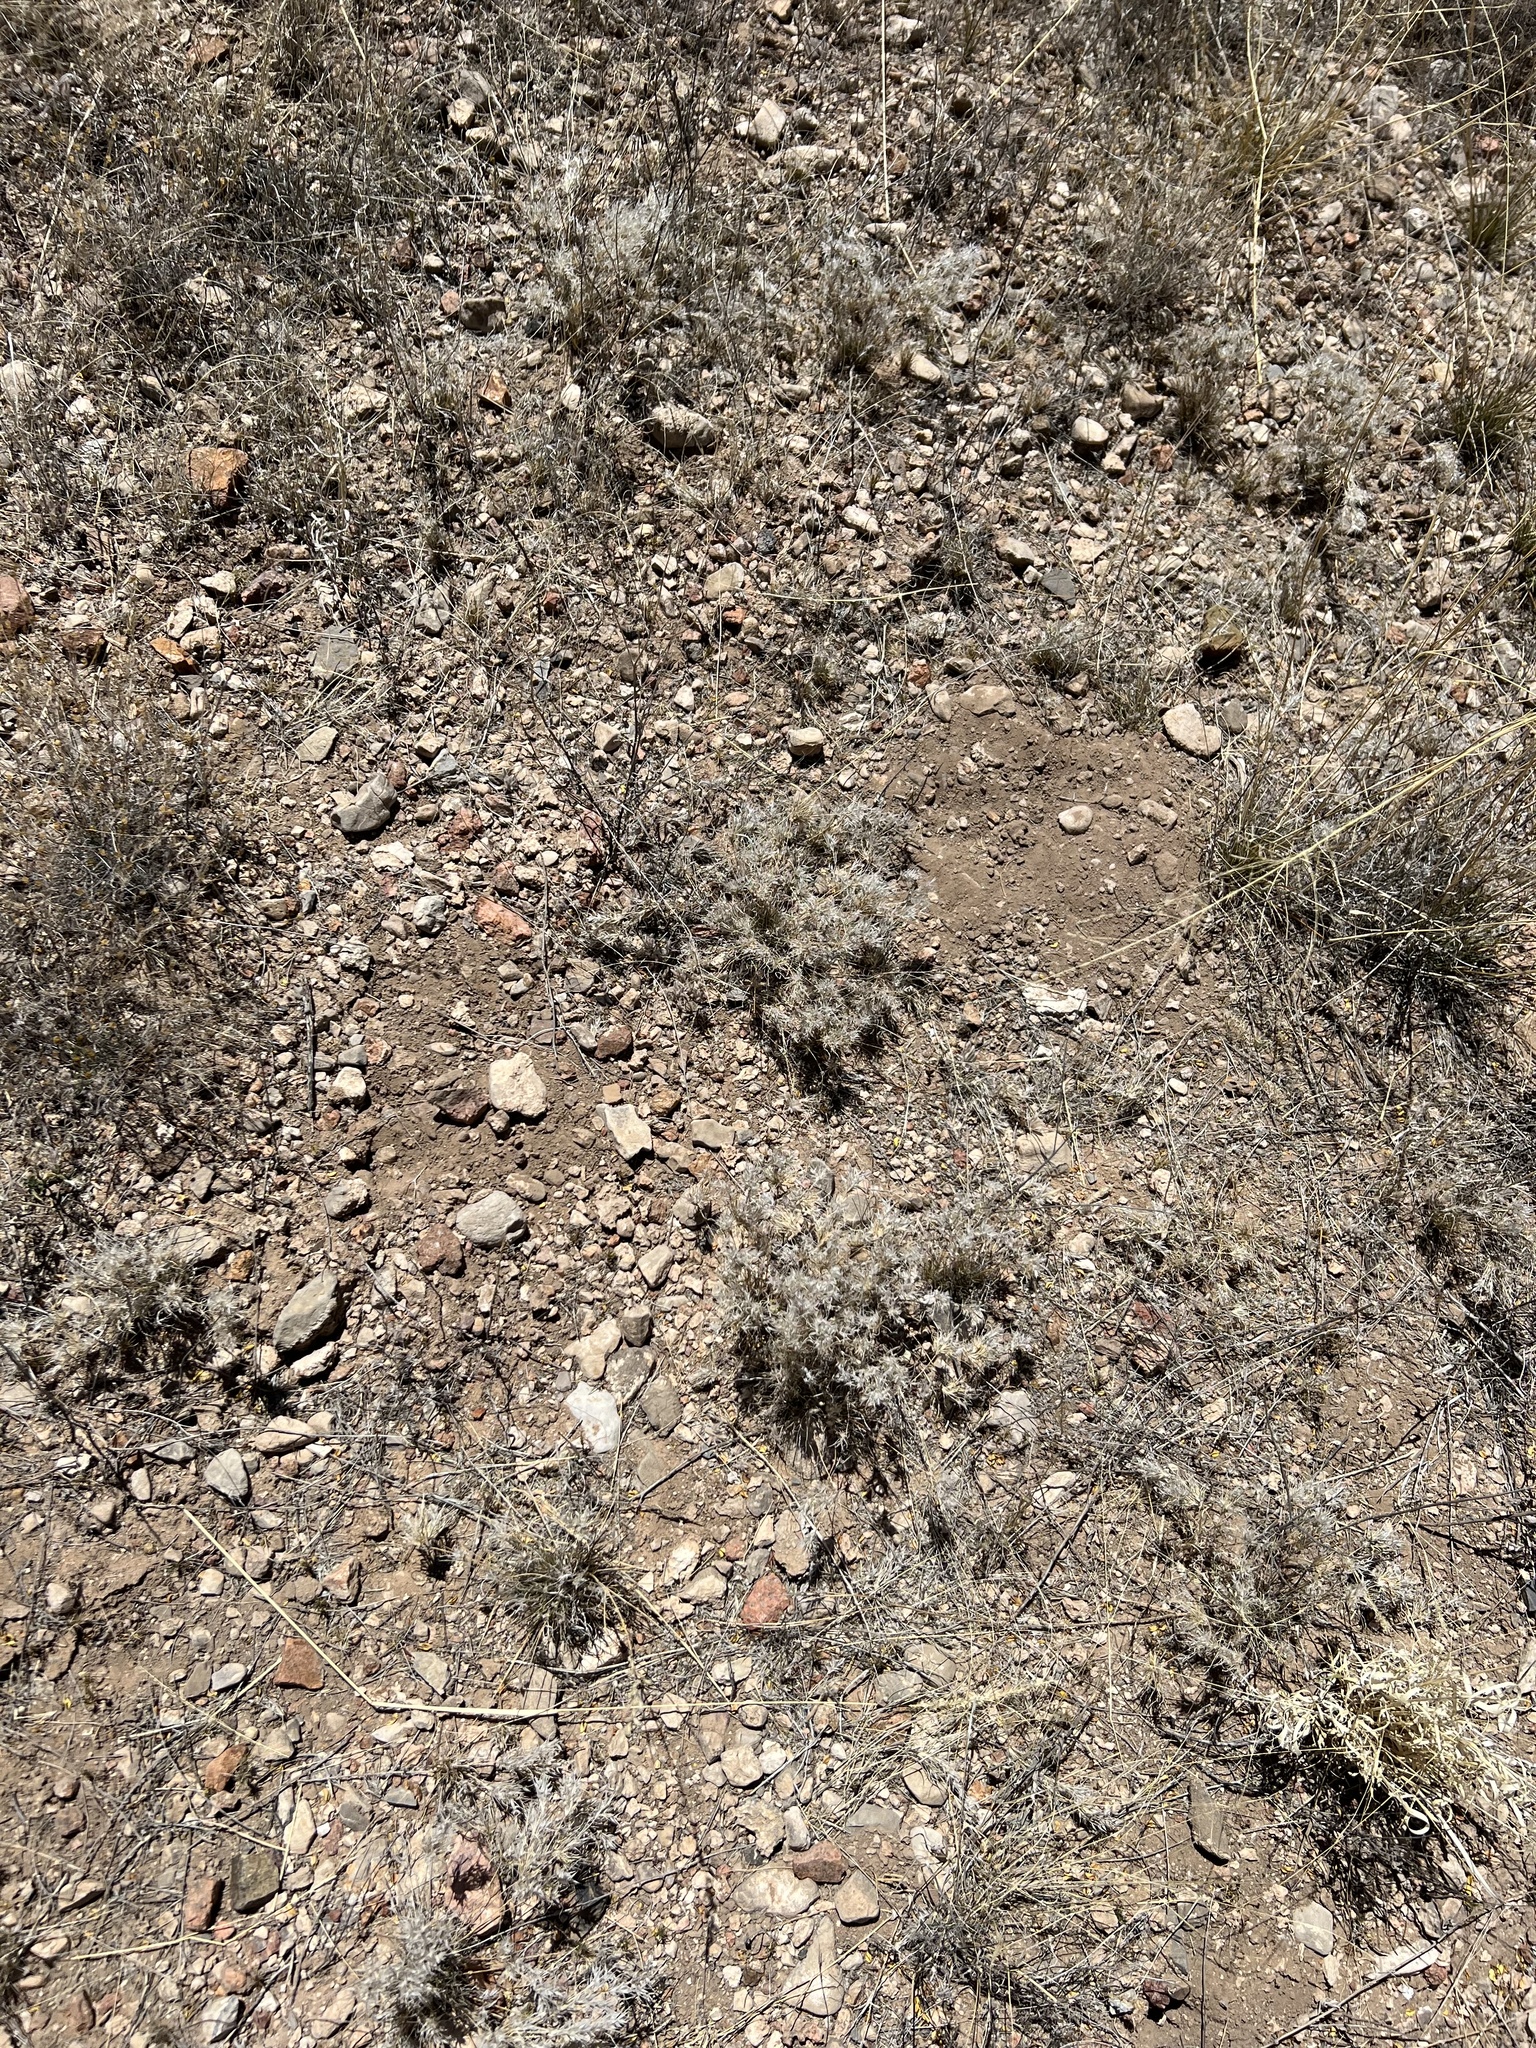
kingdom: Plantae
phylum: Tracheophyta
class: Liliopsida
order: Poales
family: Poaceae
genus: Dasyochloa
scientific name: Dasyochloa pulchella
